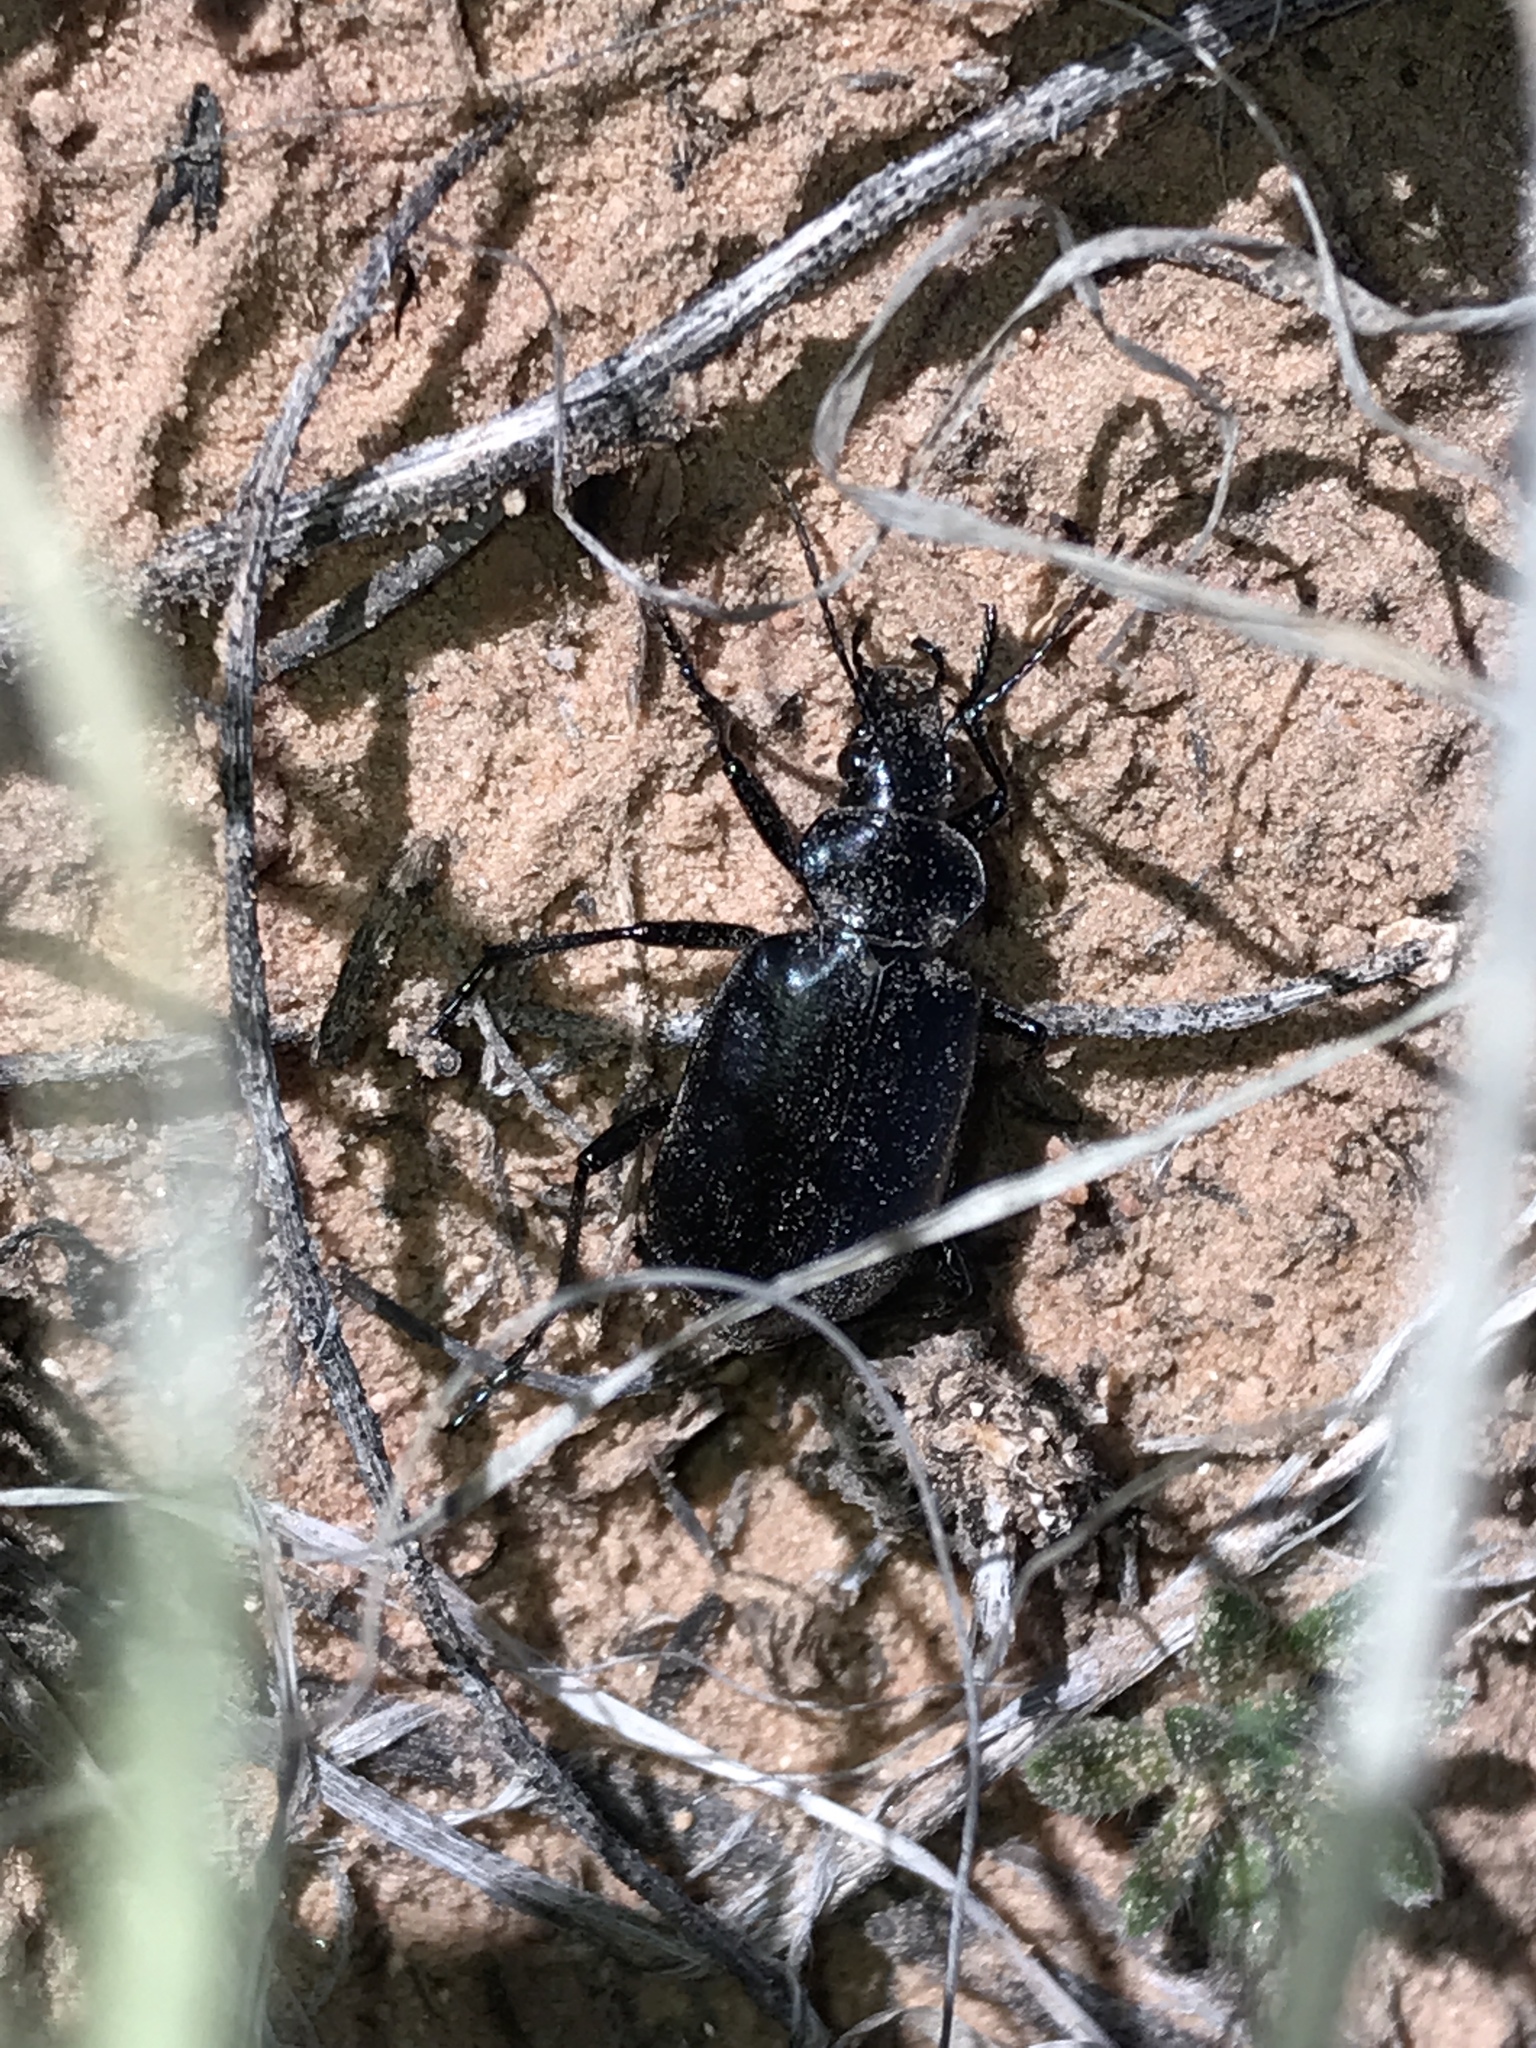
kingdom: Animalia
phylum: Arthropoda
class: Insecta
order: Coleoptera
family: Carabidae
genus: Calosoma
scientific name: Calosoma peregrinator
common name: Ground beetle
